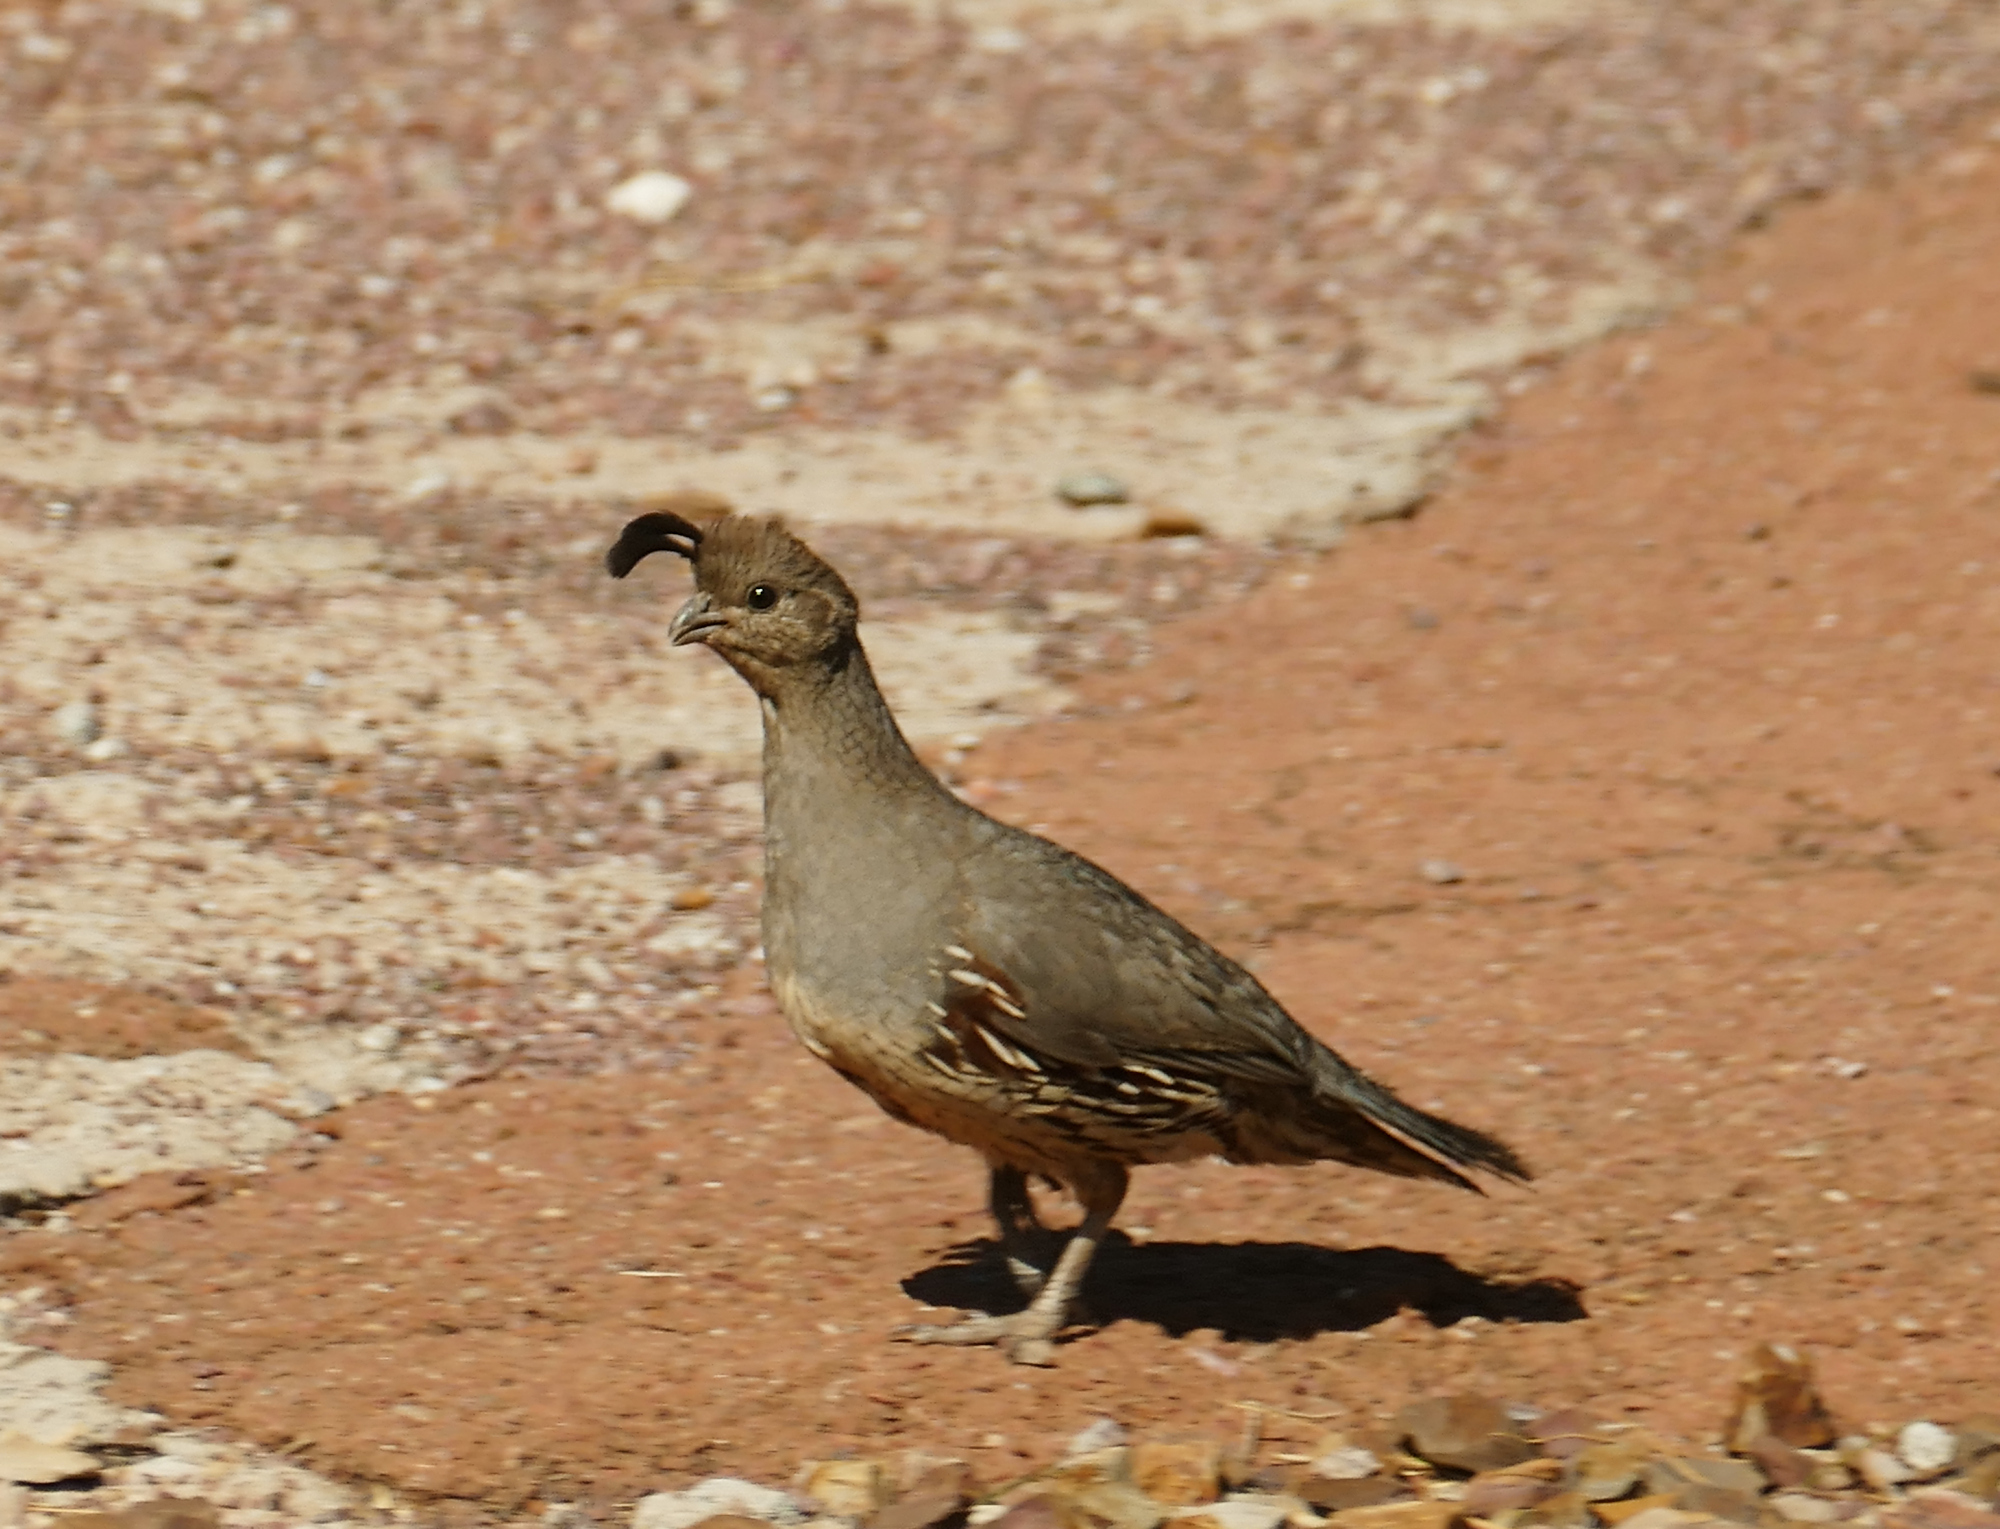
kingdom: Animalia
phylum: Chordata
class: Aves
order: Galliformes
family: Odontophoridae
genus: Callipepla
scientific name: Callipepla gambelii
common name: Gambel's quail
